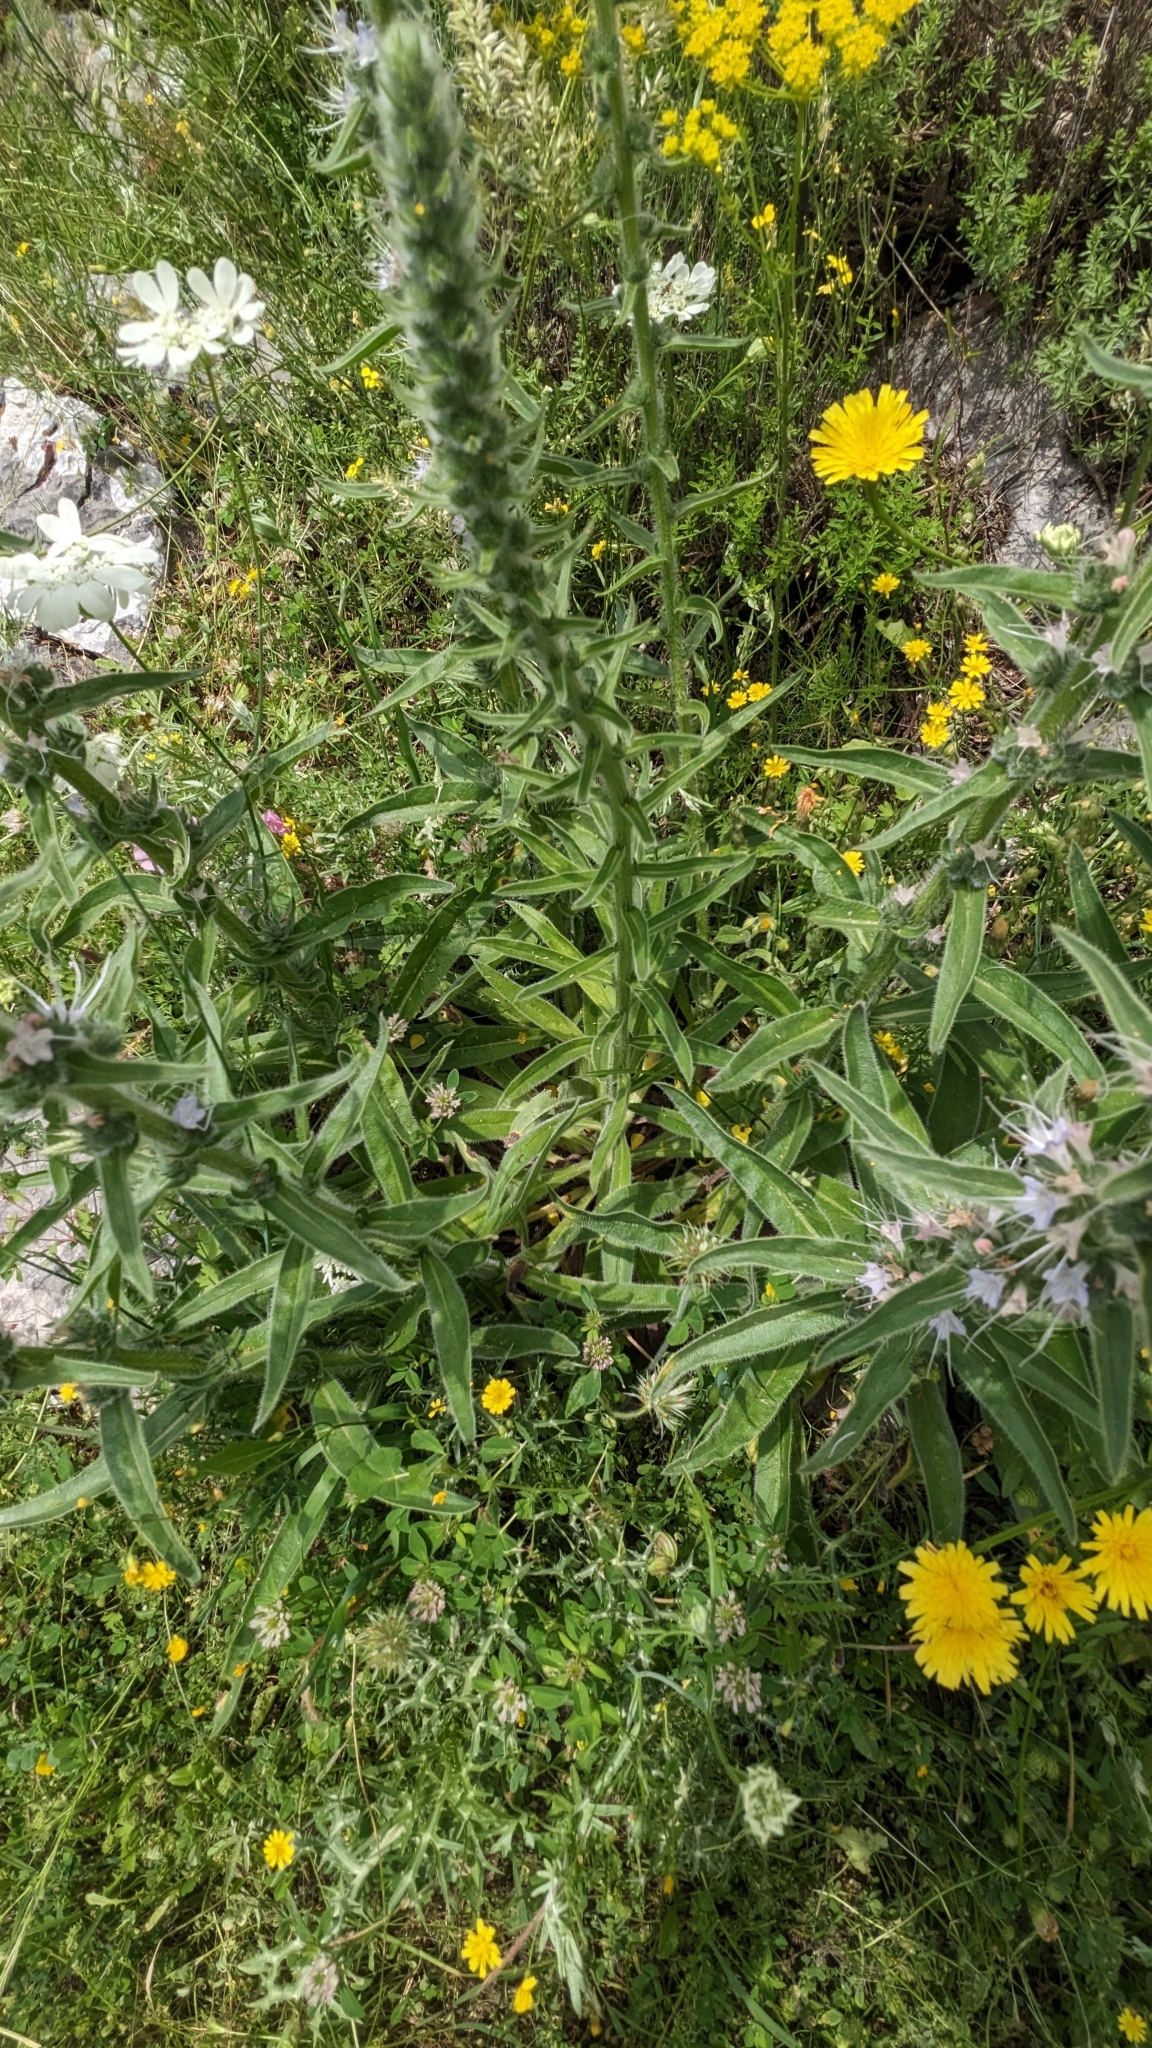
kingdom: Plantae
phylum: Tracheophyta
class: Magnoliopsida
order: Boraginales
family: Boraginaceae
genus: Echium
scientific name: Echium italicum
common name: Italian viper's bugloss
